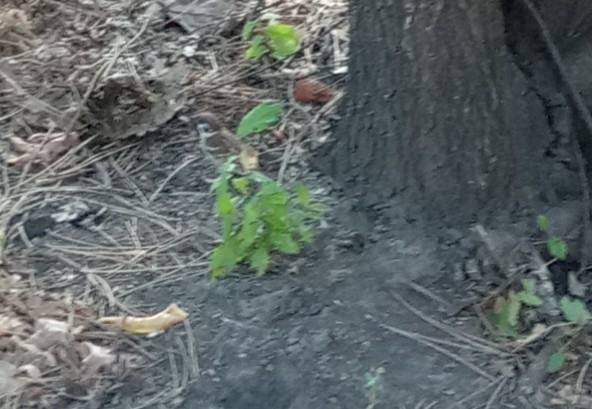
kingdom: Animalia
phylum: Chordata
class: Aves
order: Passeriformes
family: Passeridae
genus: Passer
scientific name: Passer montanus
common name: Eurasian tree sparrow
